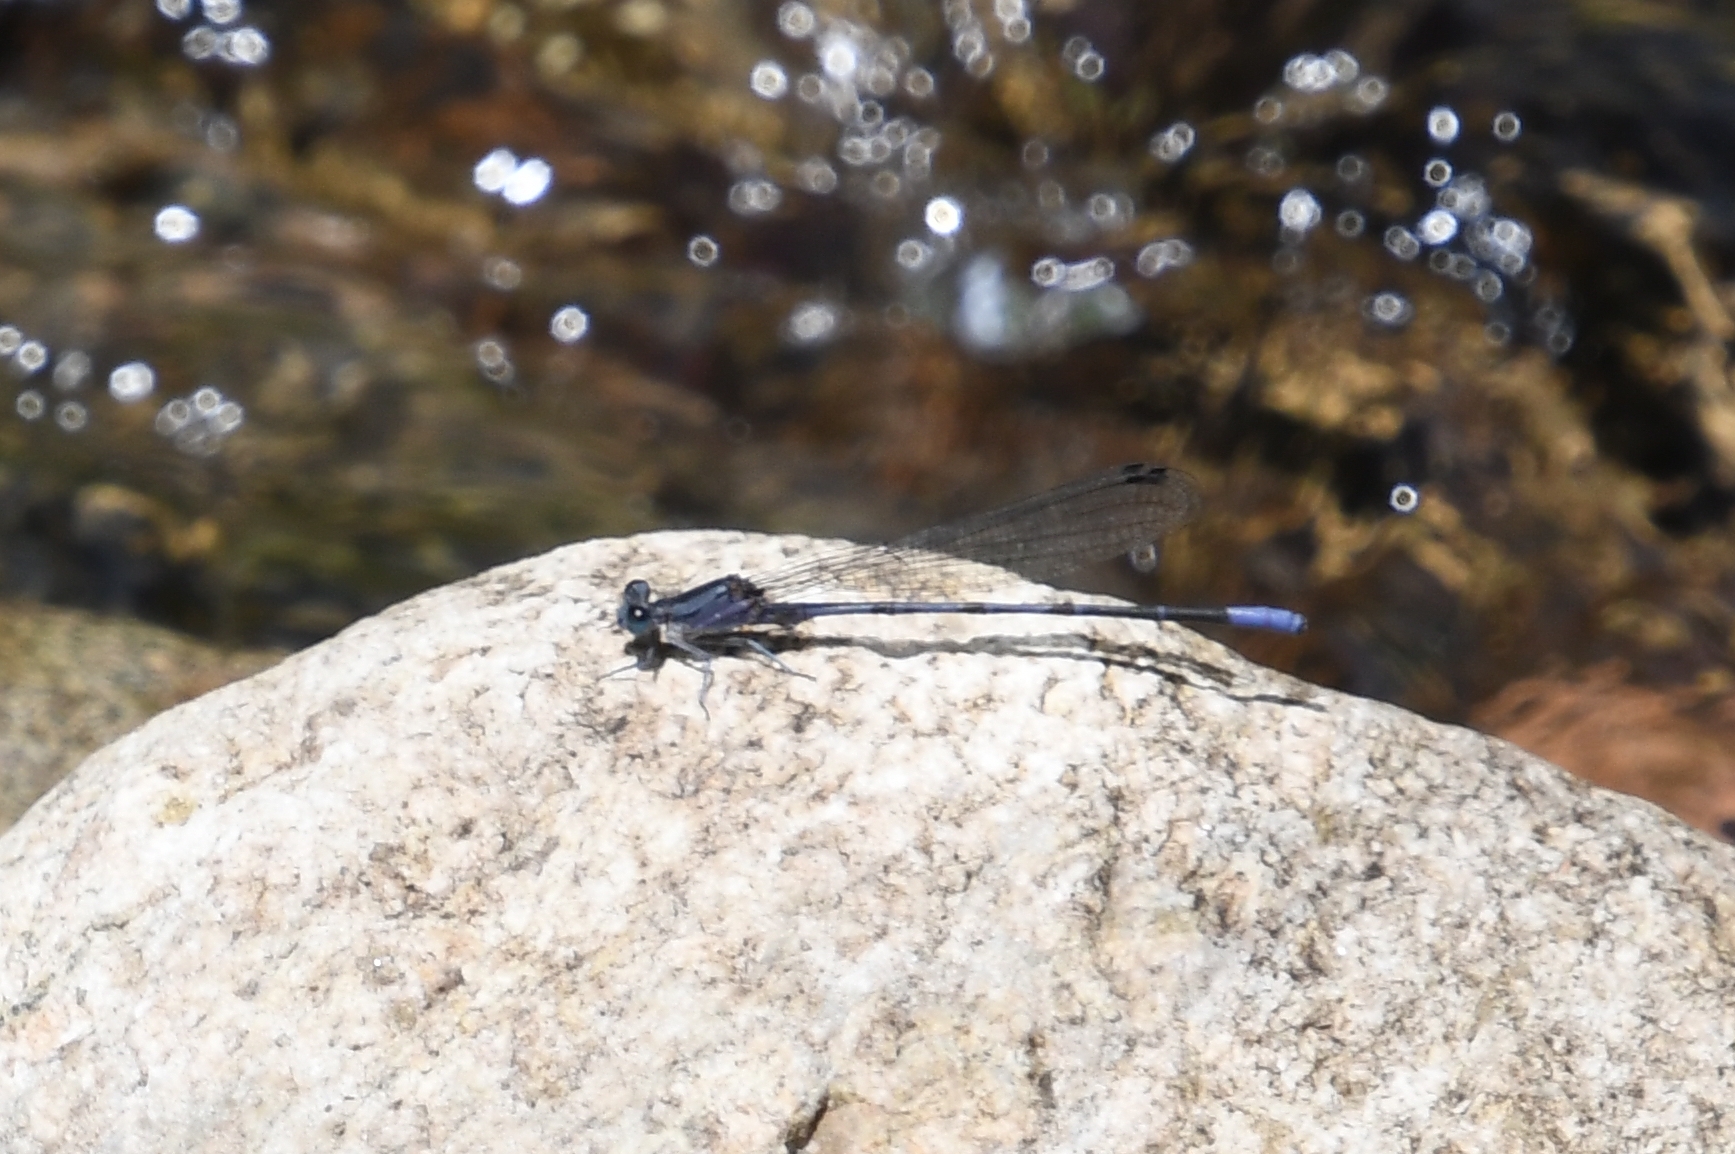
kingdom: Animalia
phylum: Arthropoda
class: Insecta
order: Odonata
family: Coenagrionidae
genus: Argia
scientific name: Argia funebris
